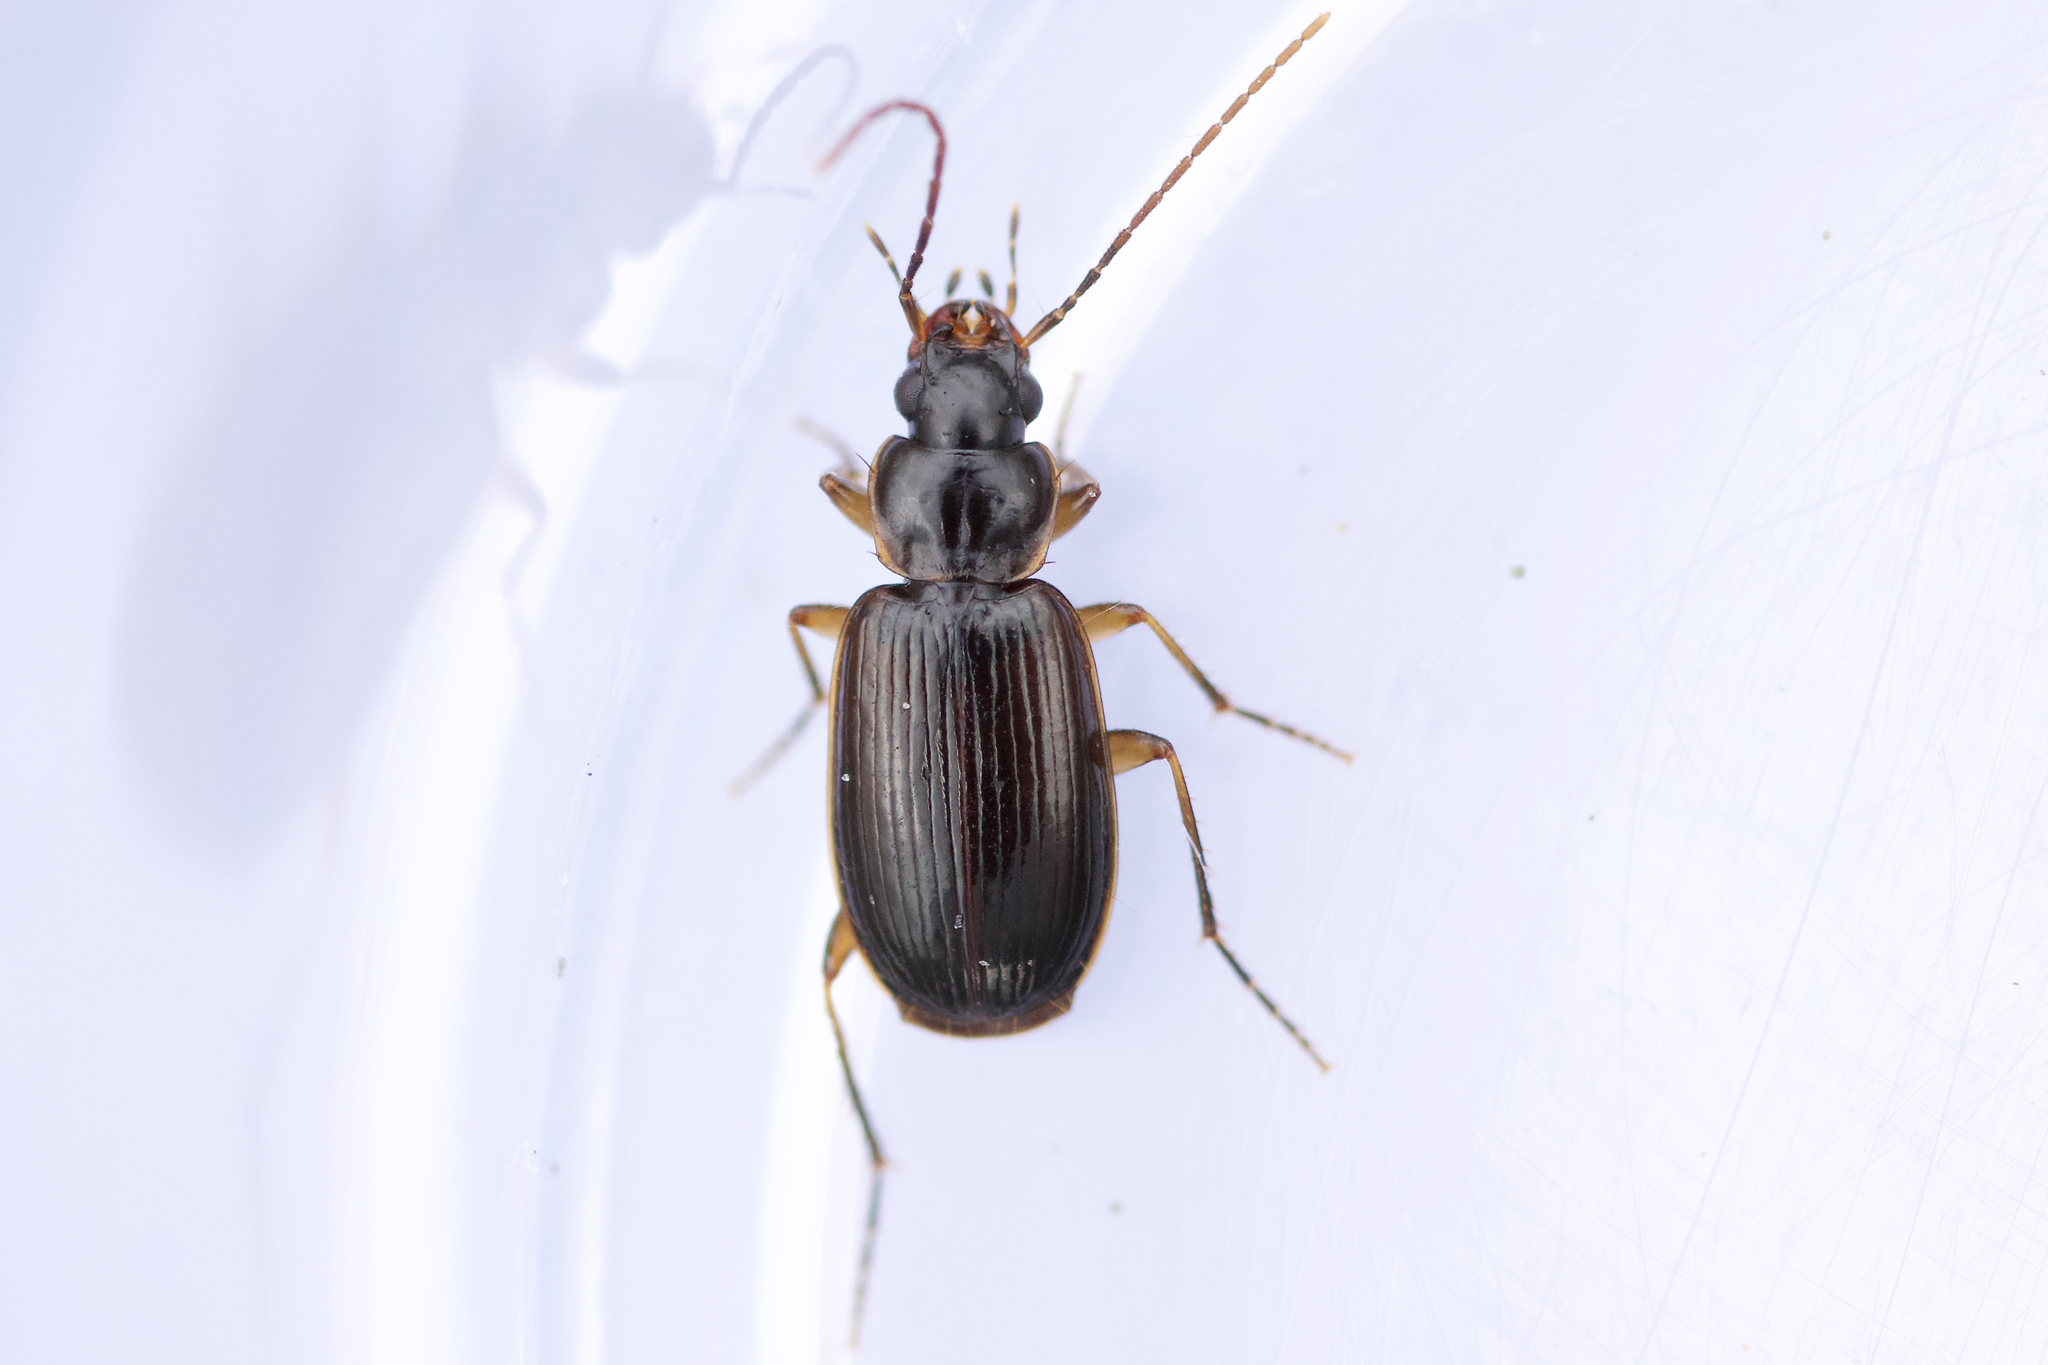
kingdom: Animalia
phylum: Arthropoda
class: Insecta
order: Coleoptera
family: Carabidae
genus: Badister
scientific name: Badister grandiceps
